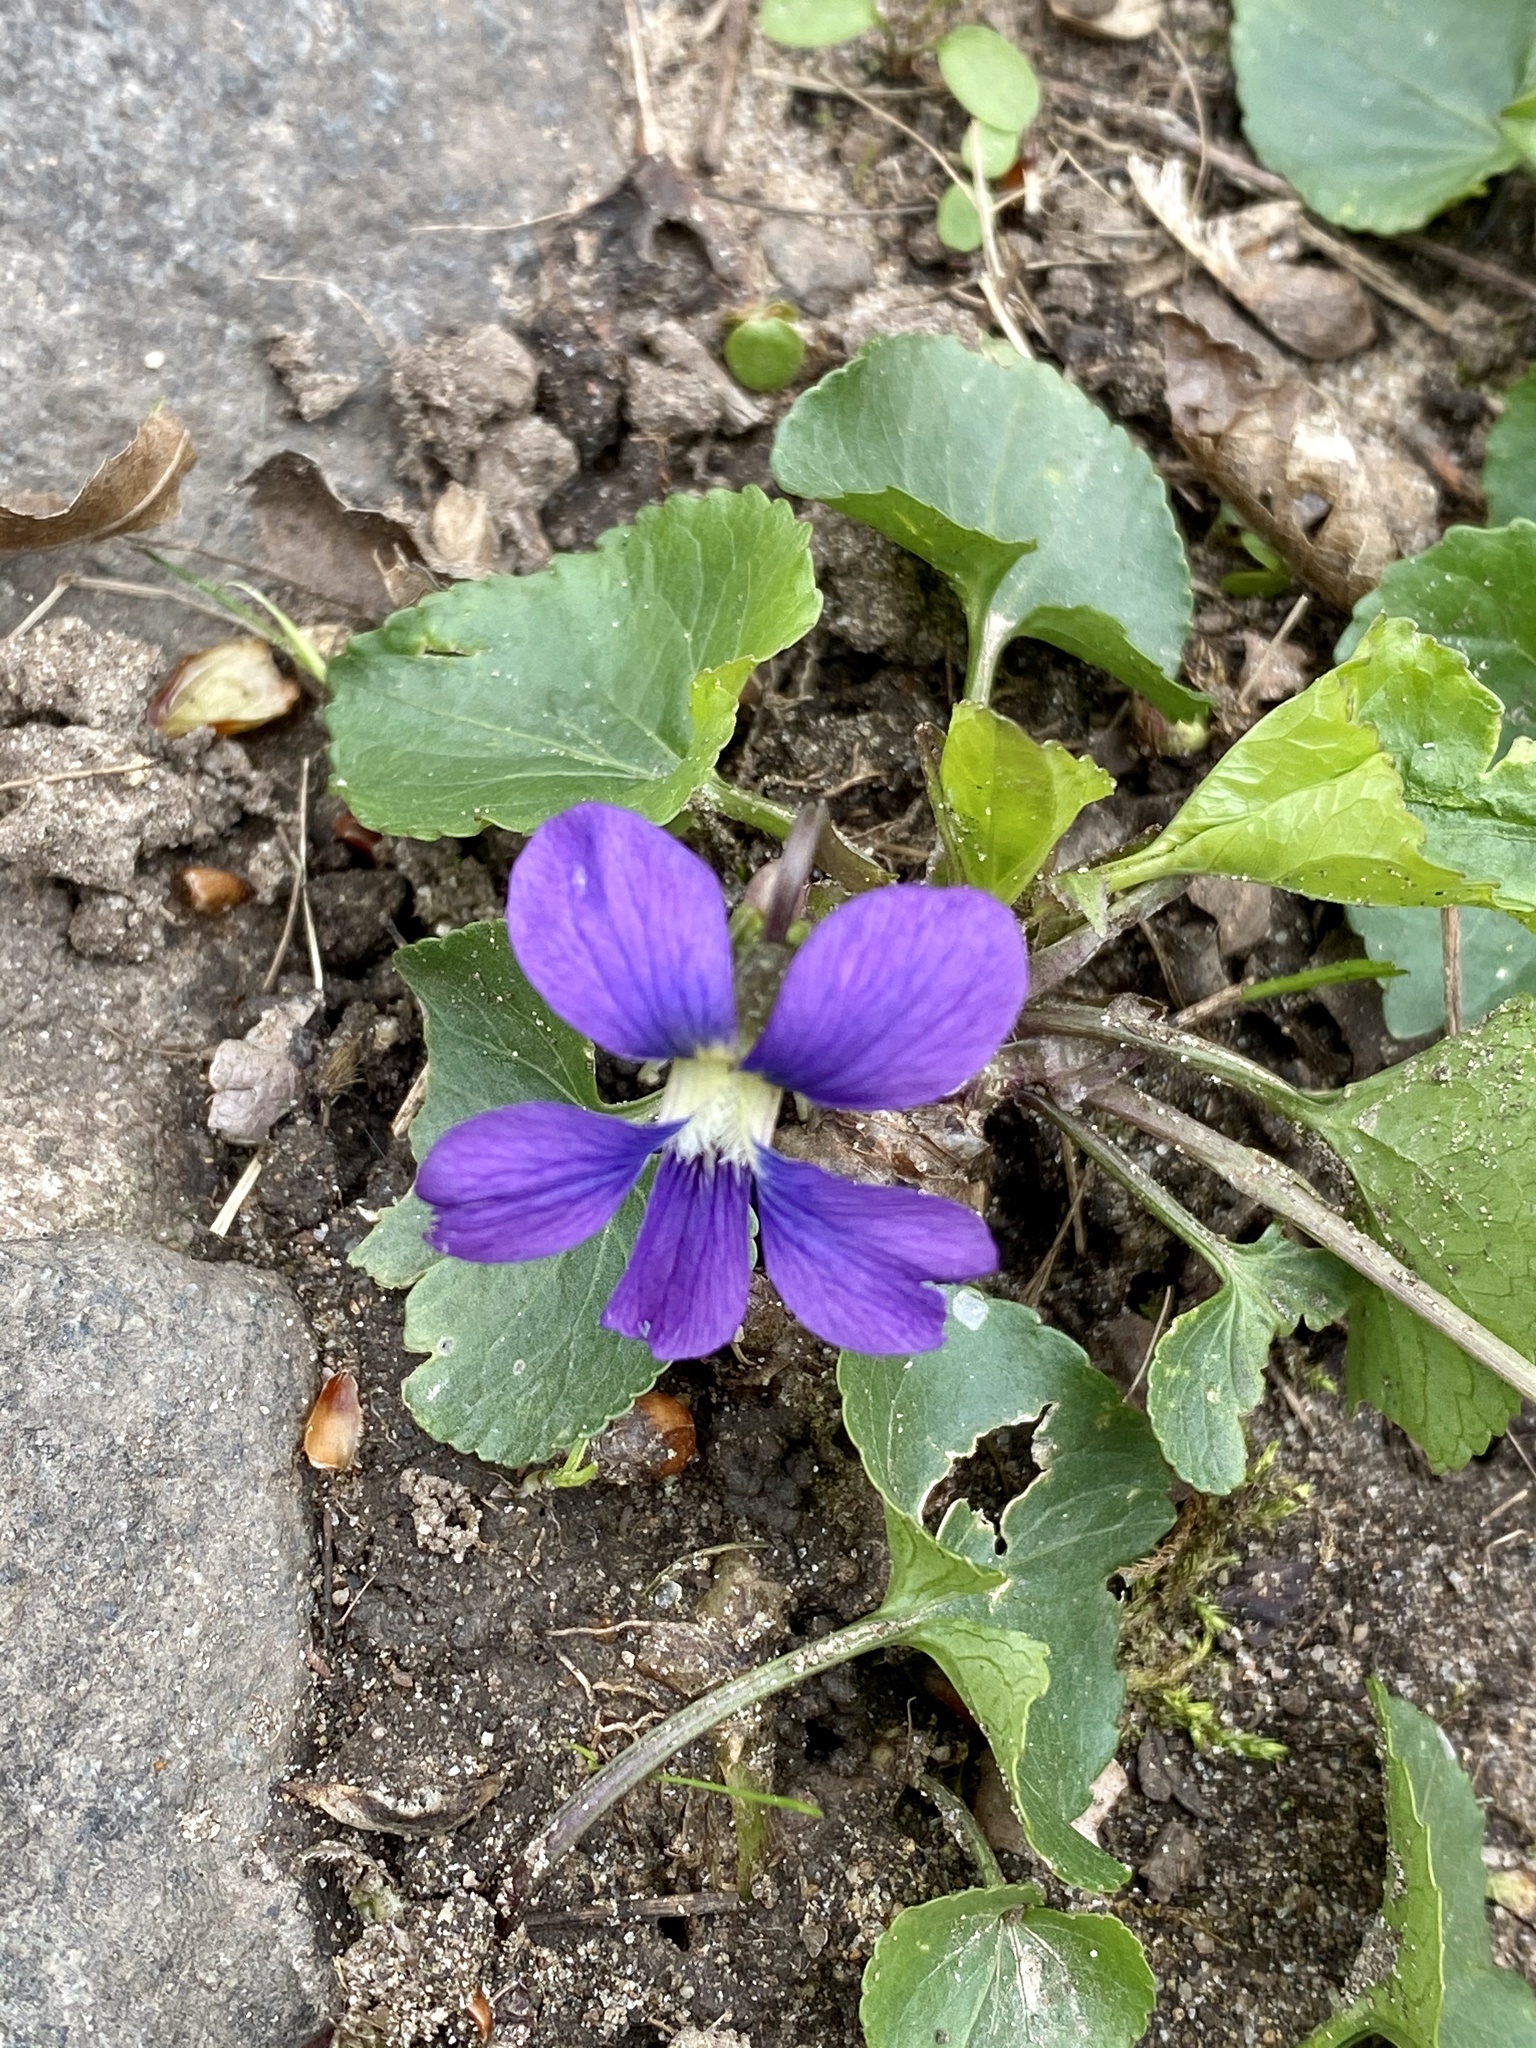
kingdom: Plantae
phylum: Tracheophyta
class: Magnoliopsida
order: Malpighiales
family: Violaceae
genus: Viola
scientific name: Viola sororia
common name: Dooryard violet
